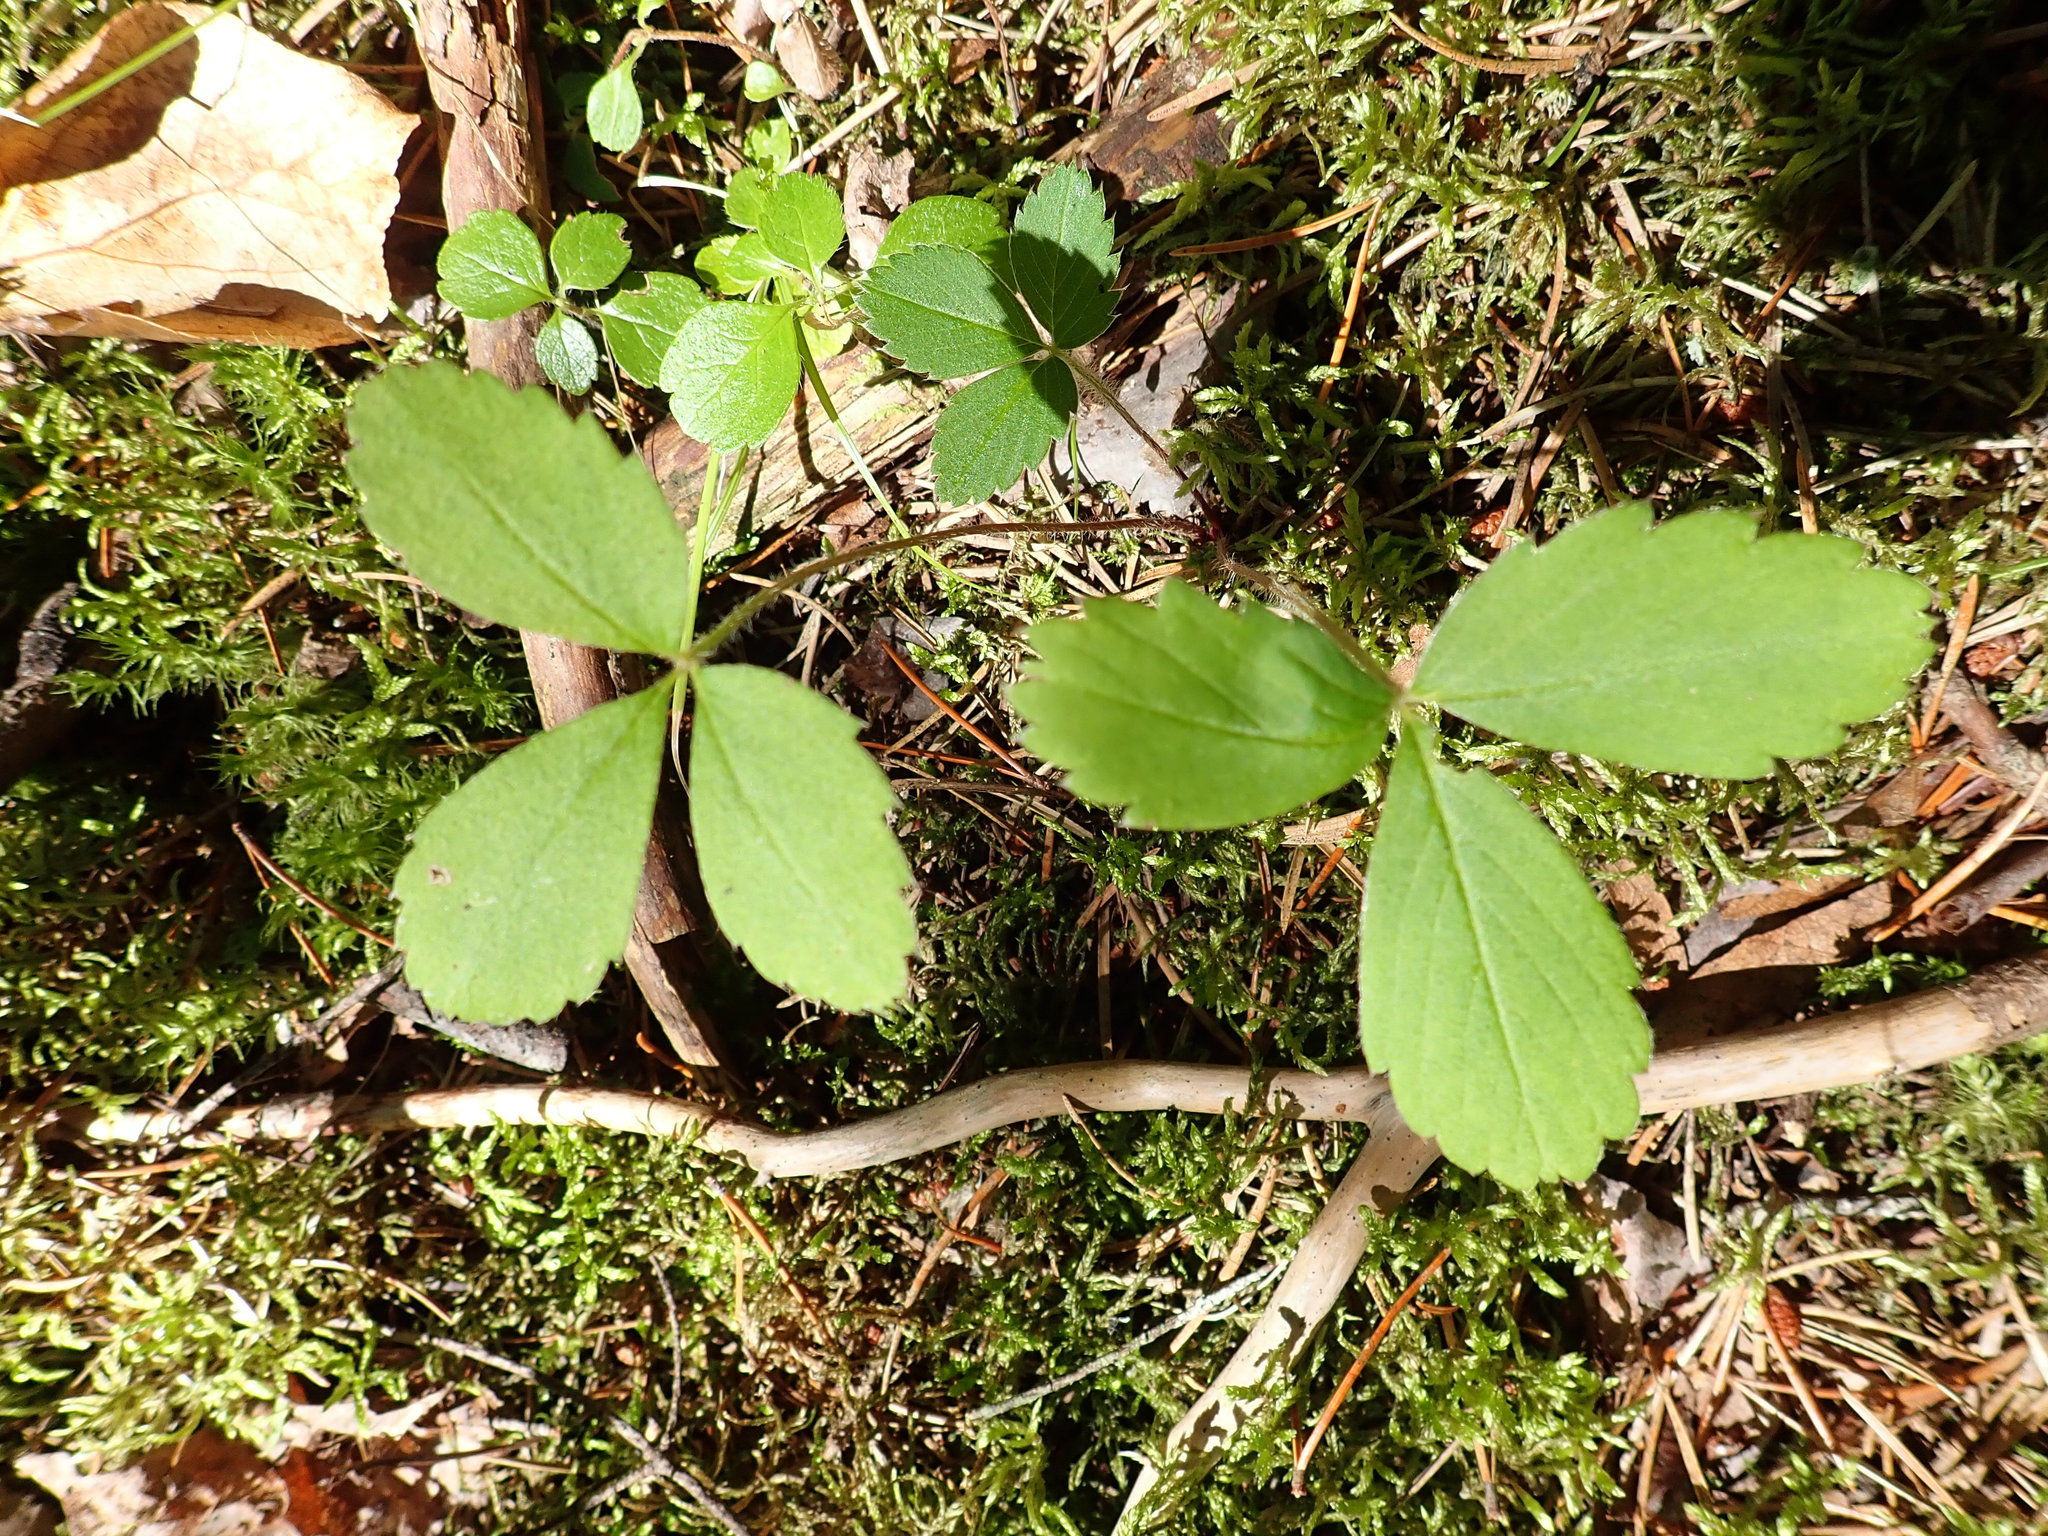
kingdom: Plantae
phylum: Tracheophyta
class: Magnoliopsida
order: Rosales
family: Rosaceae
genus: Fragaria
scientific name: Fragaria virginiana
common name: Thickleaved wild strawberry
